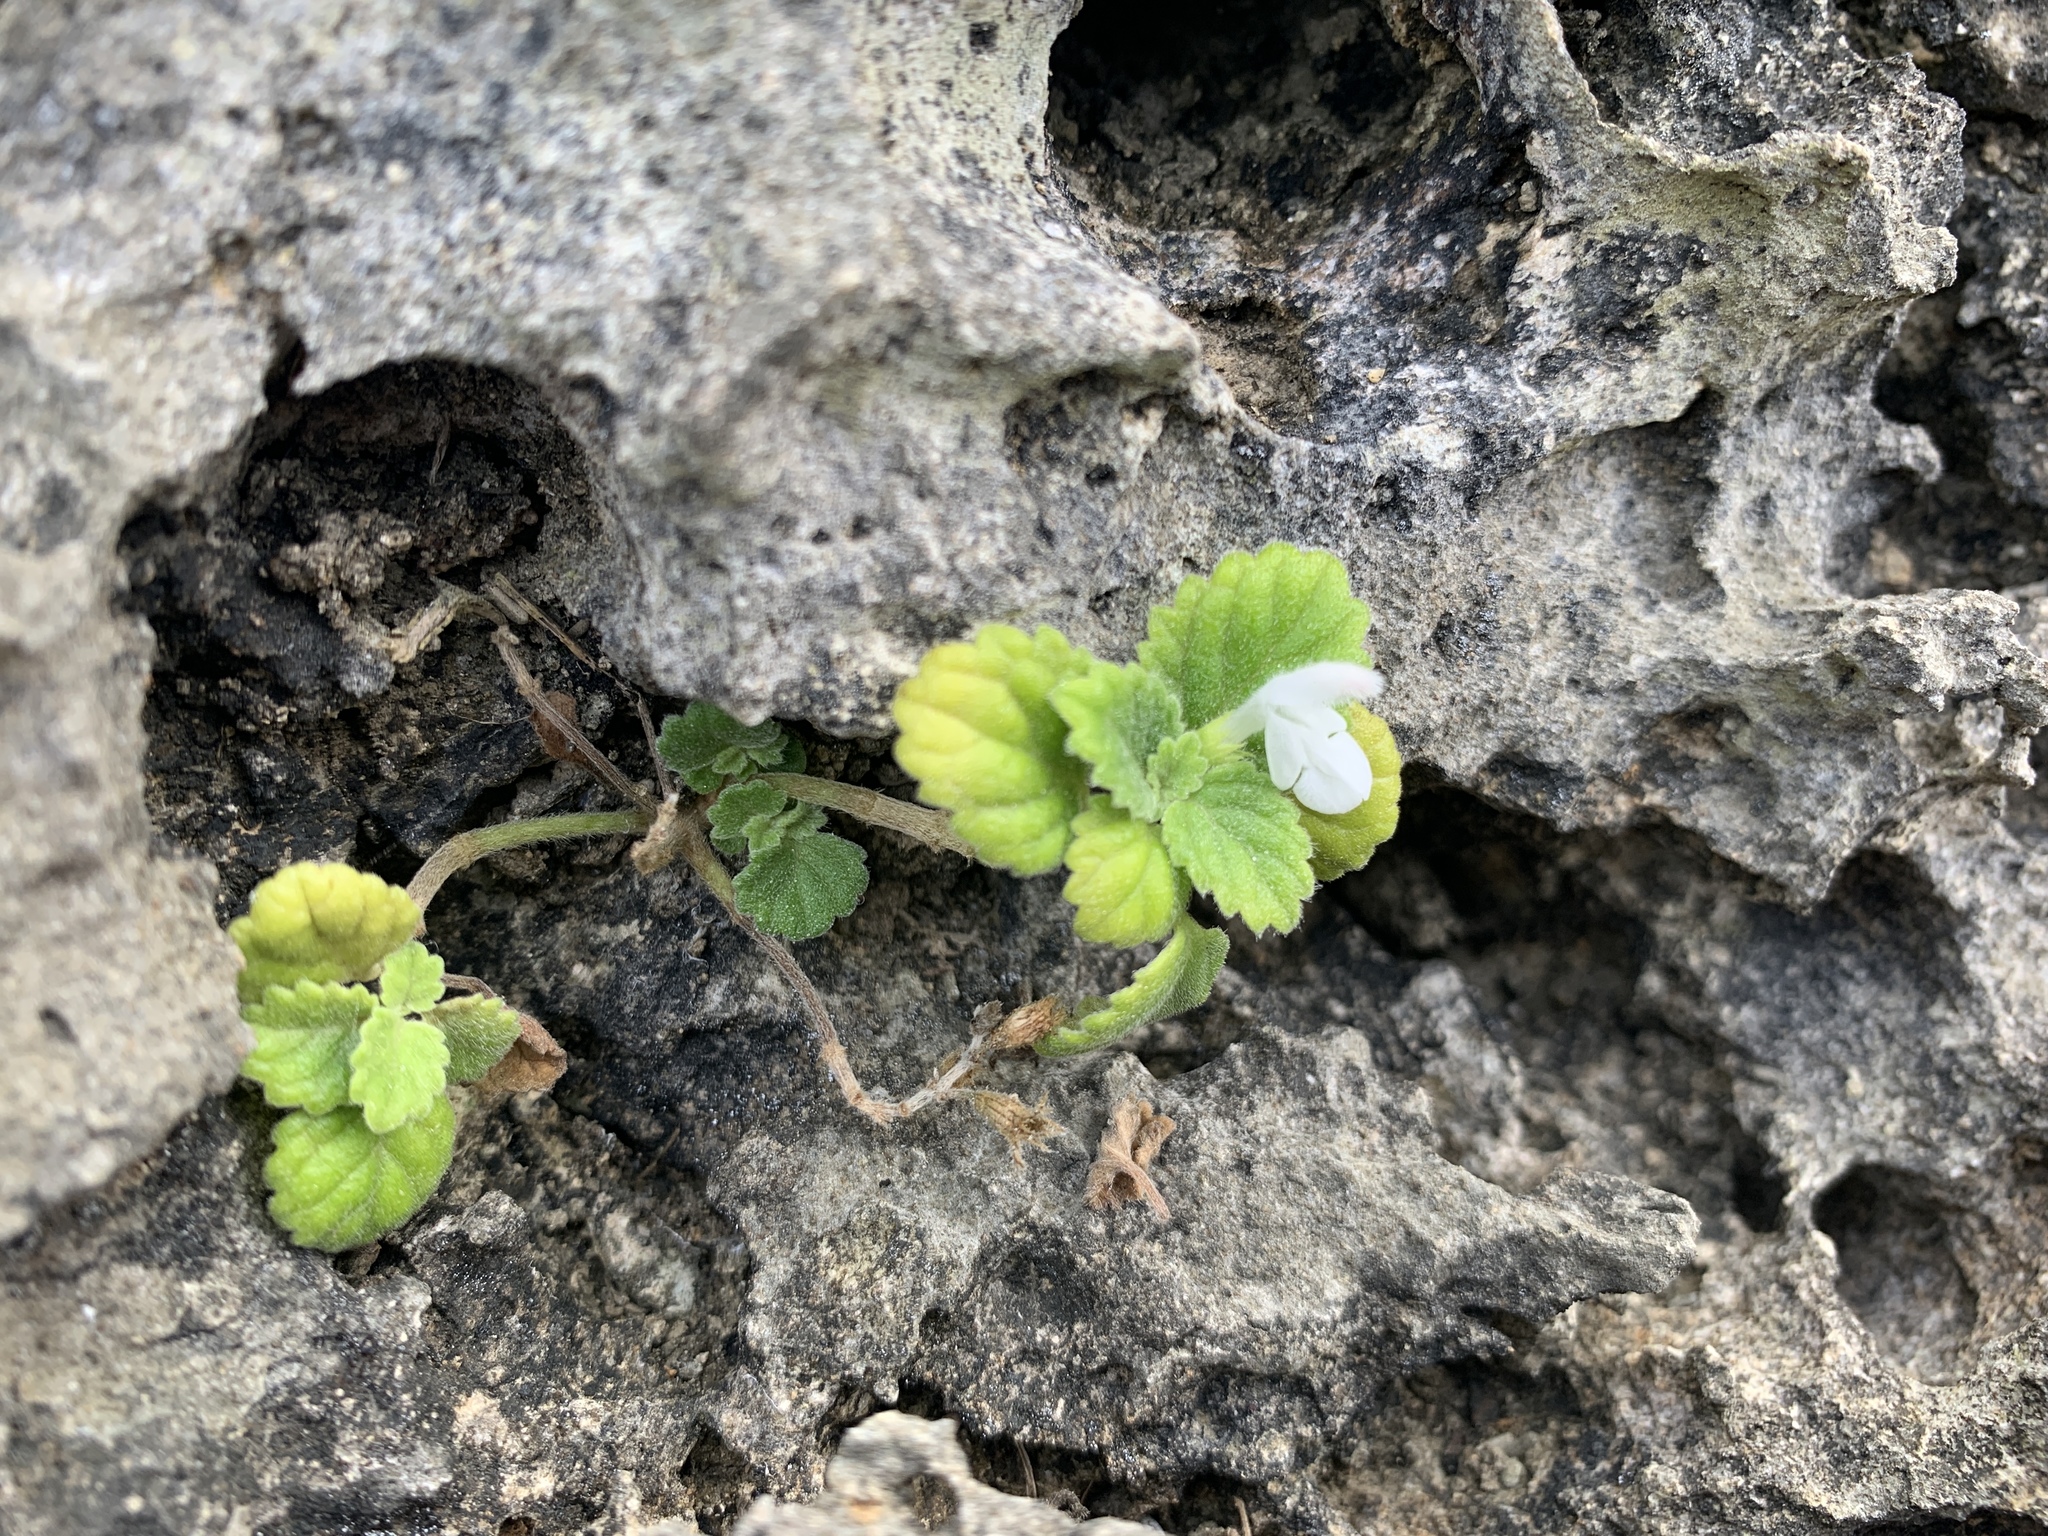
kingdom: Plantae
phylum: Tracheophyta
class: Magnoliopsida
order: Lamiales
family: Lamiaceae
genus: Leucas
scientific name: Leucas chinensis
